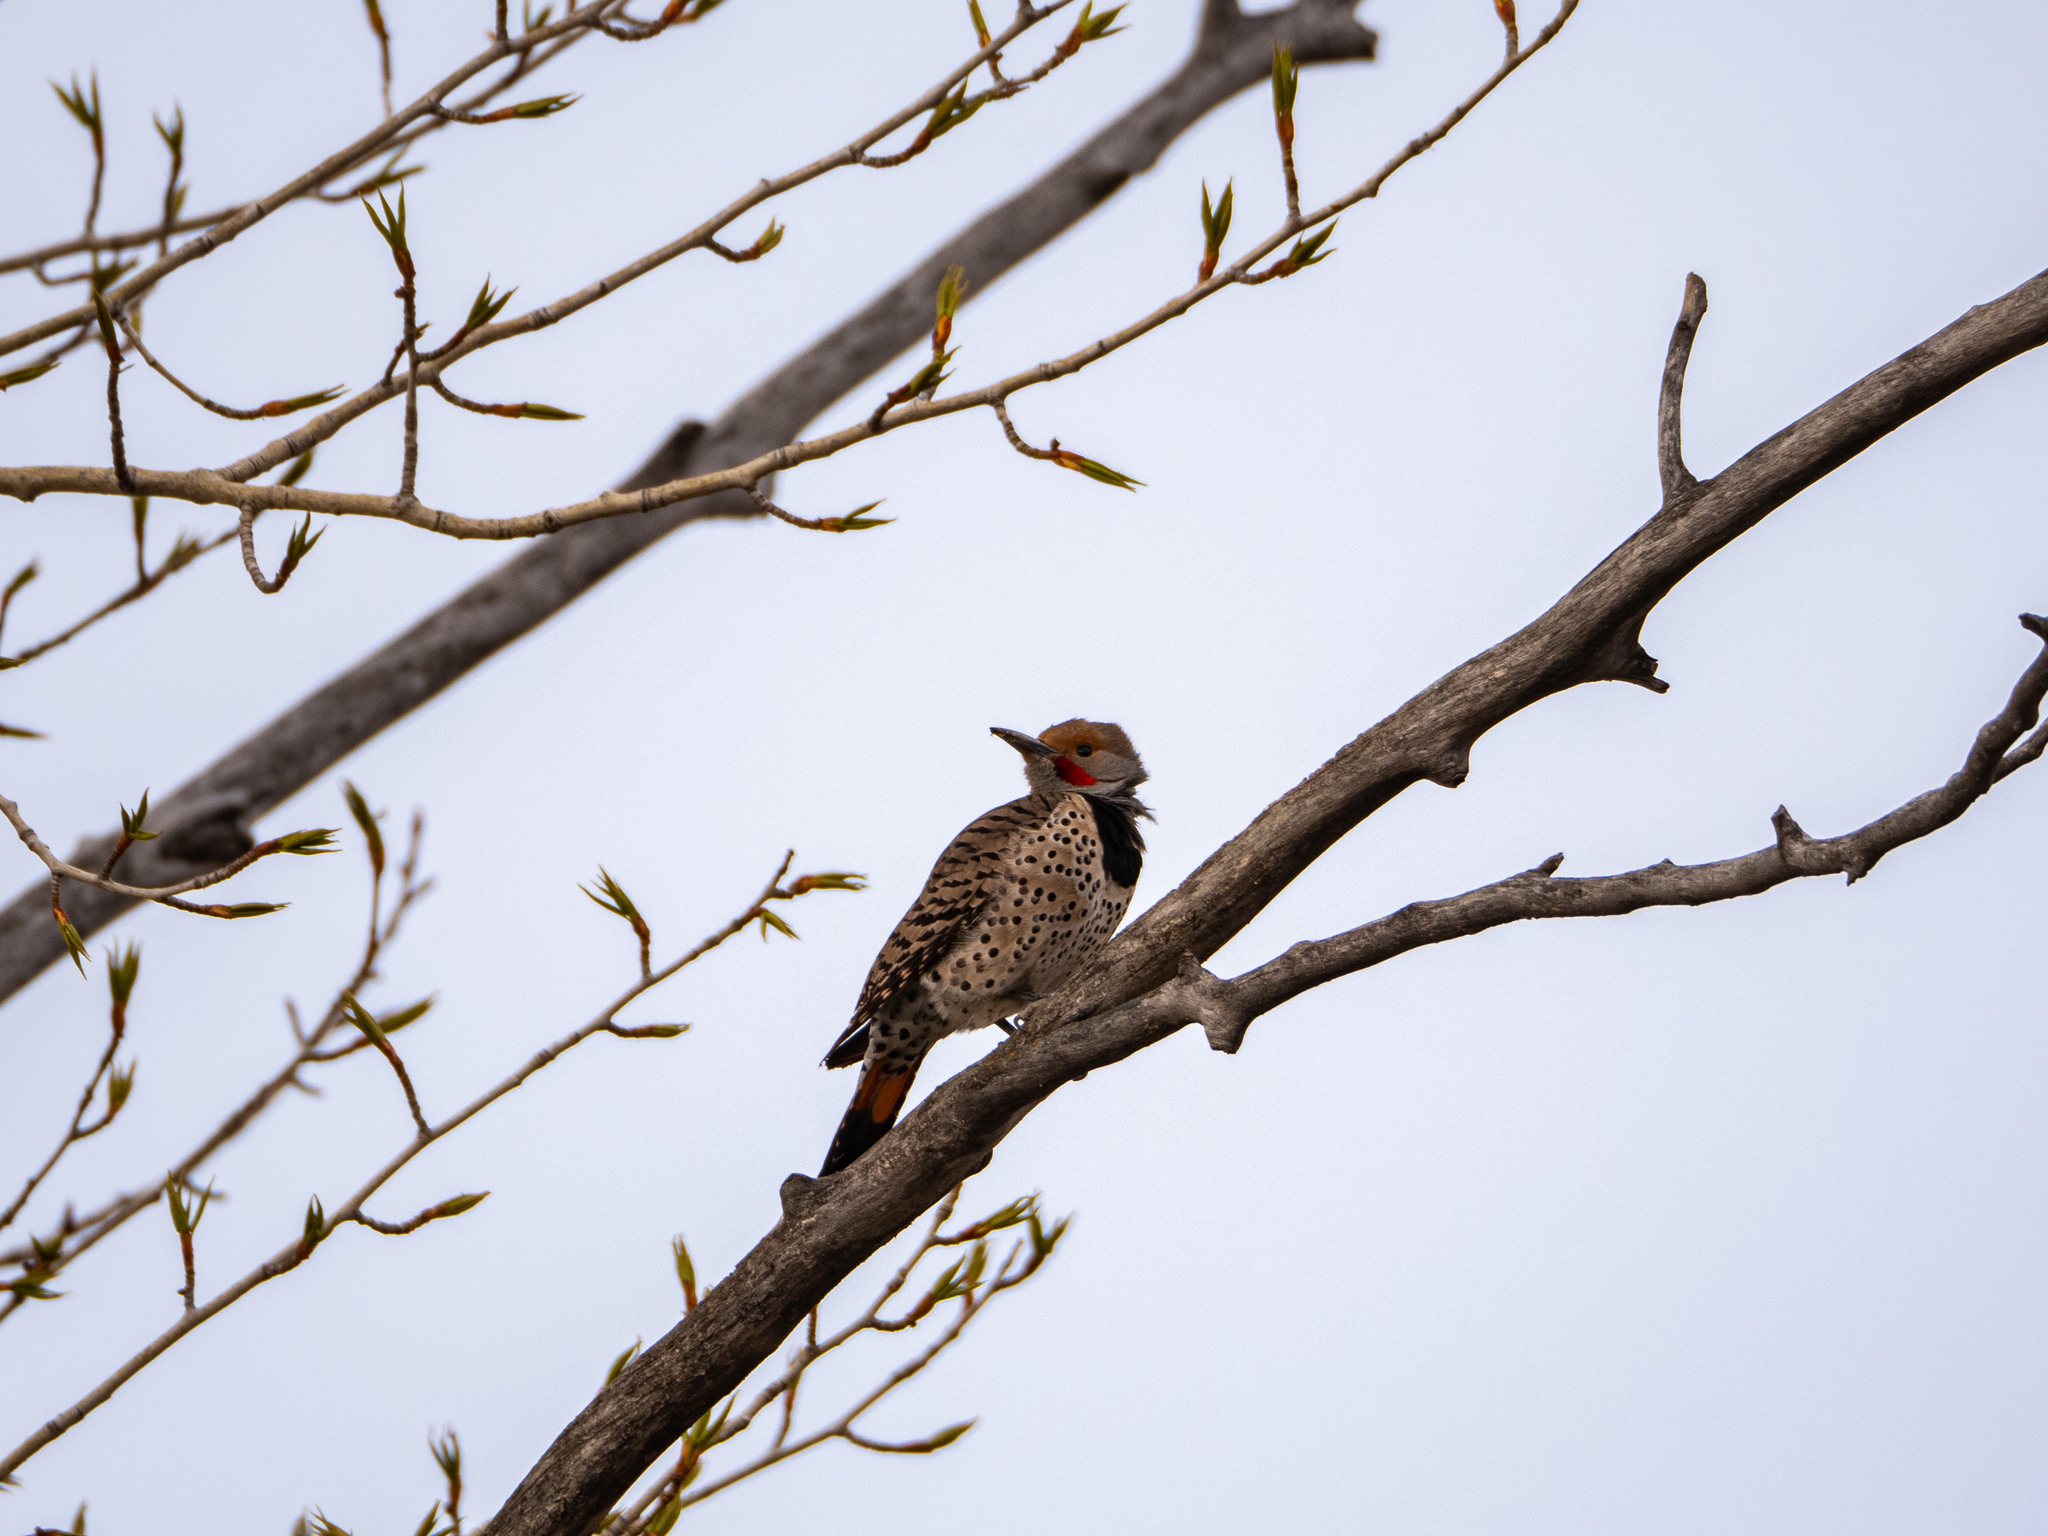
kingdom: Animalia
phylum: Chordata
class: Aves
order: Piciformes
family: Picidae
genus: Colaptes
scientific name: Colaptes auratus
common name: Northern flicker
